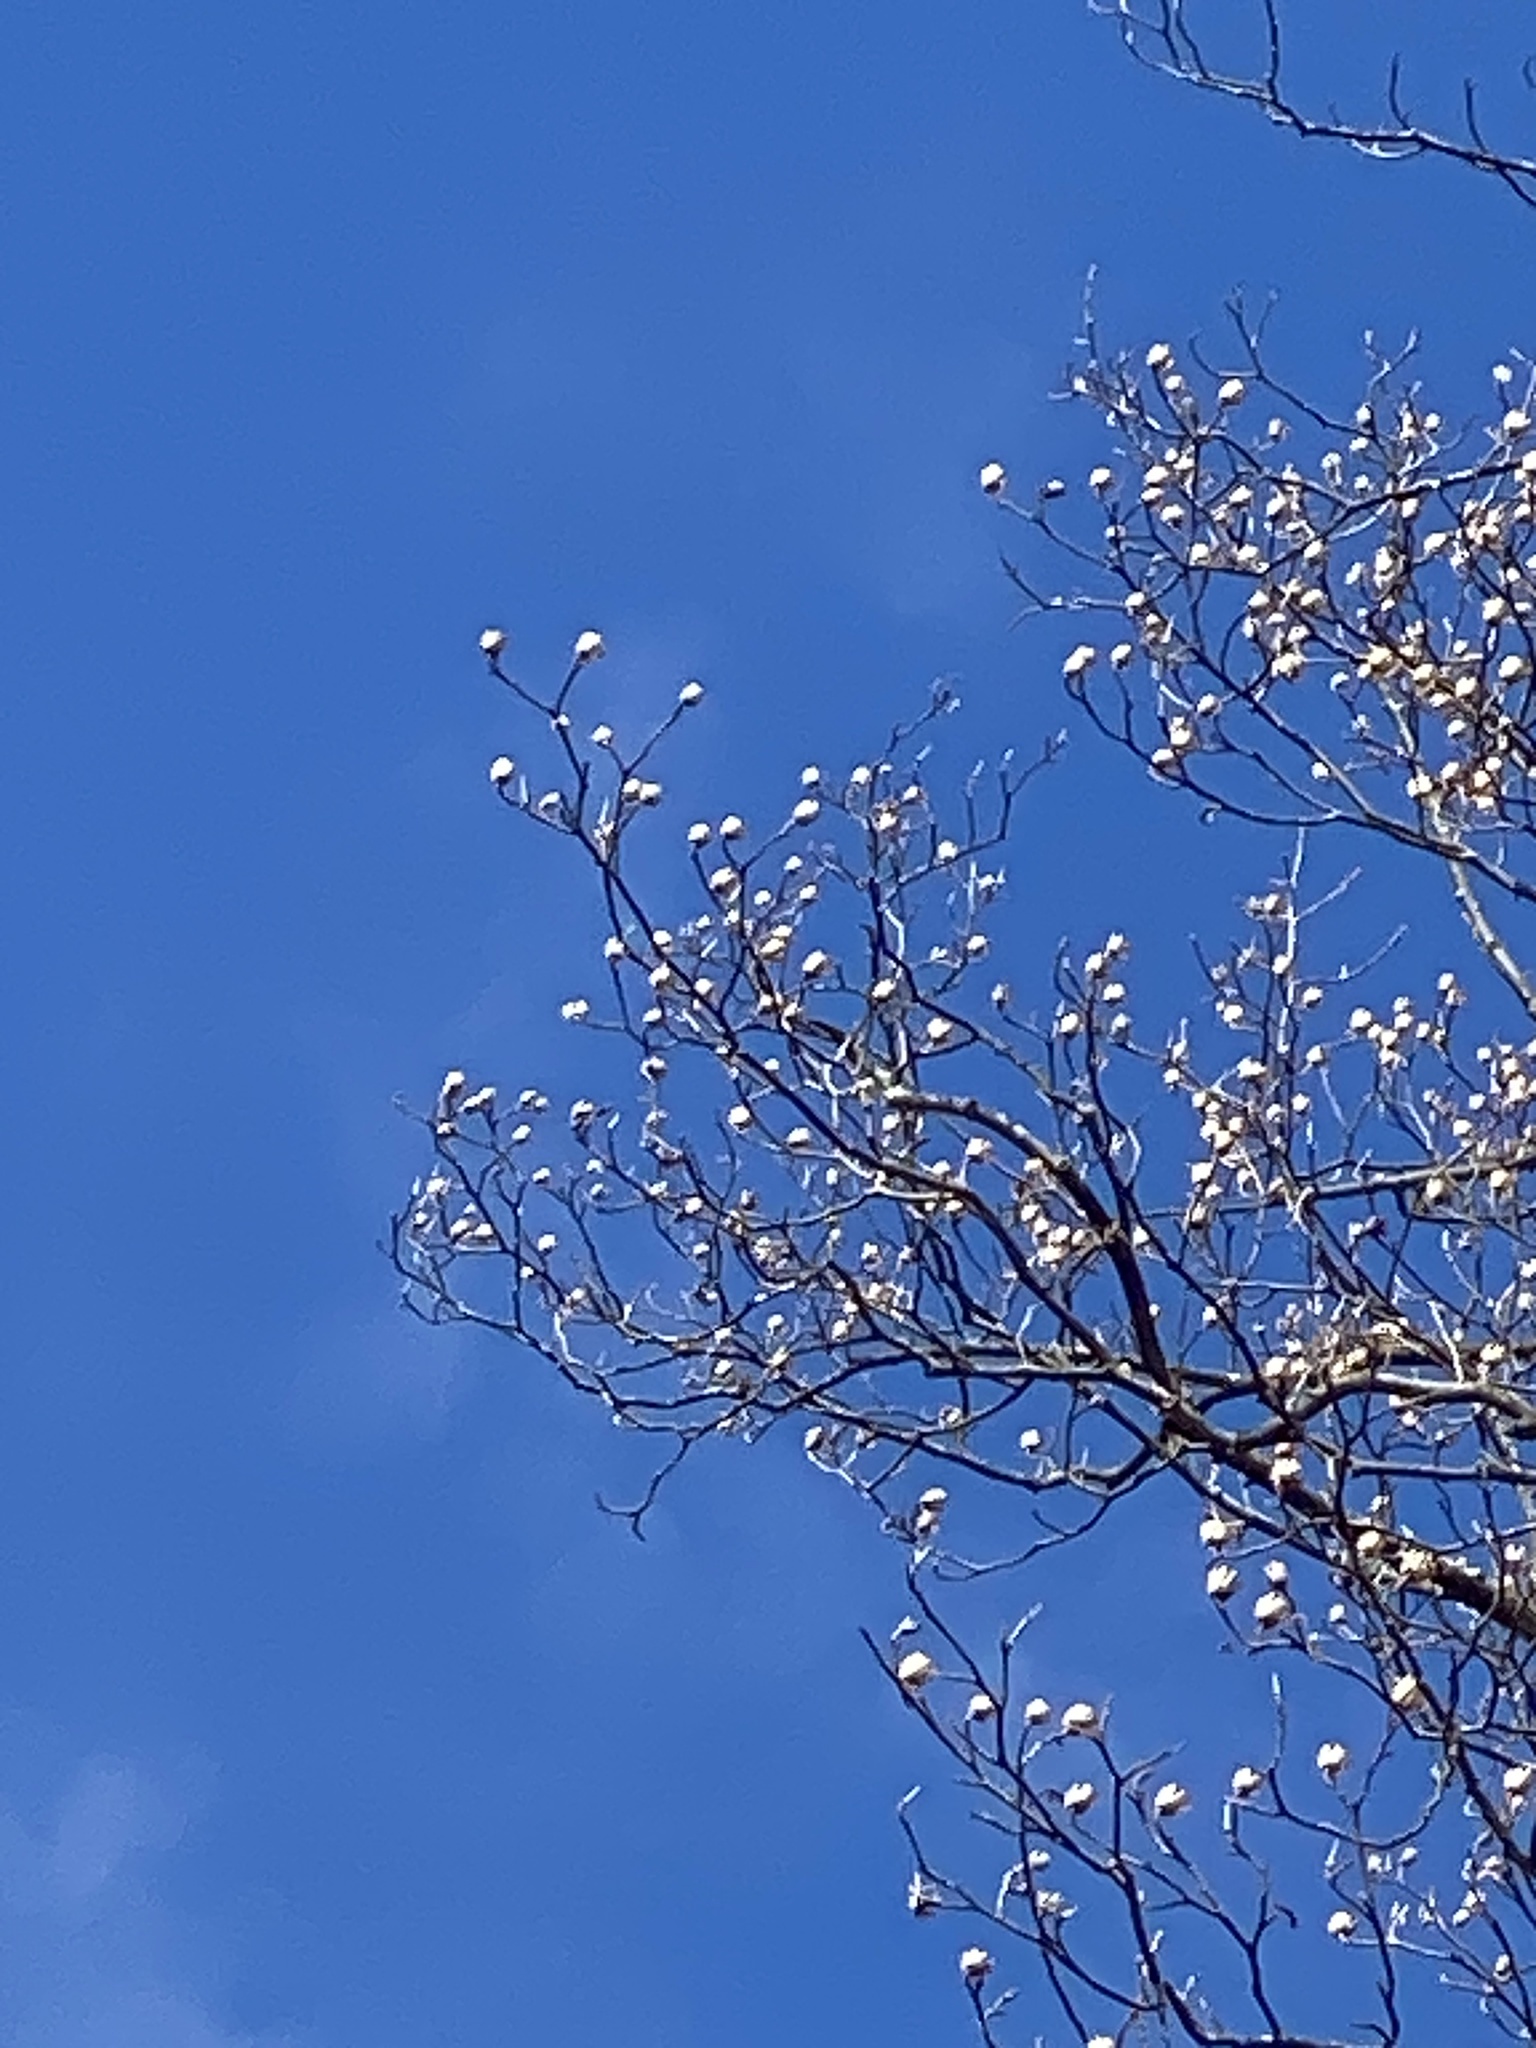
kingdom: Plantae
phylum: Tracheophyta
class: Magnoliopsida
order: Magnoliales
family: Magnoliaceae
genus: Liriodendron
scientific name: Liriodendron tulipifera
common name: Tulip tree
